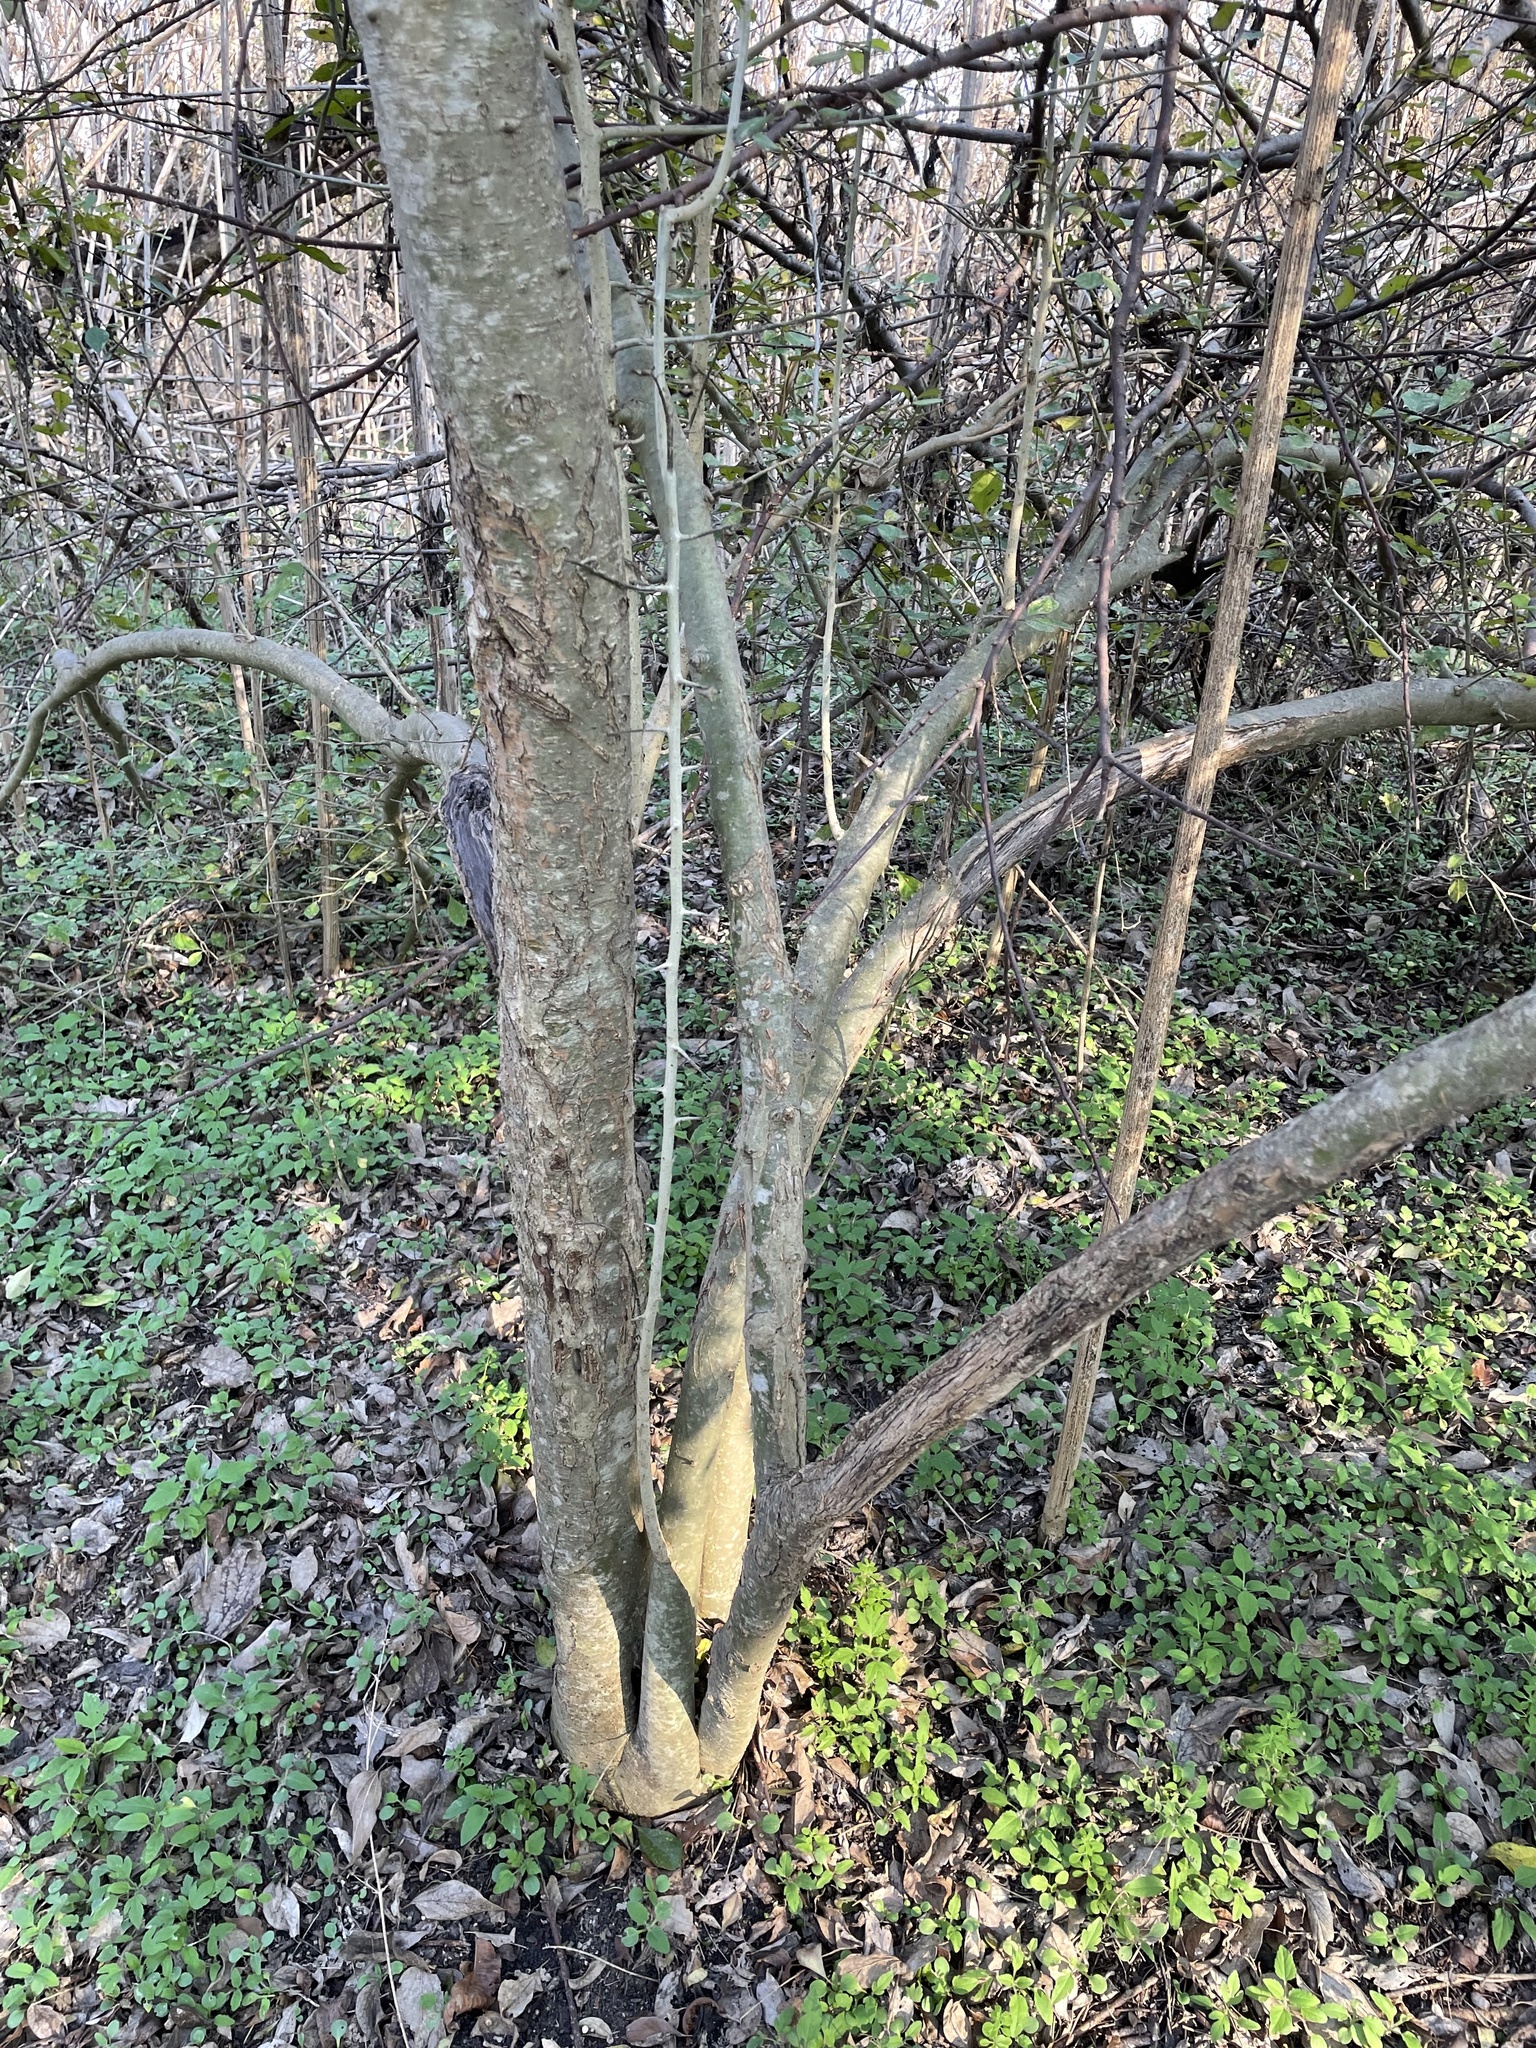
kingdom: Plantae
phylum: Tracheophyta
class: Magnoliopsida
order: Aquifoliales
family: Aquifoliaceae
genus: Ilex
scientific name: Ilex decidua
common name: Possum-haw
